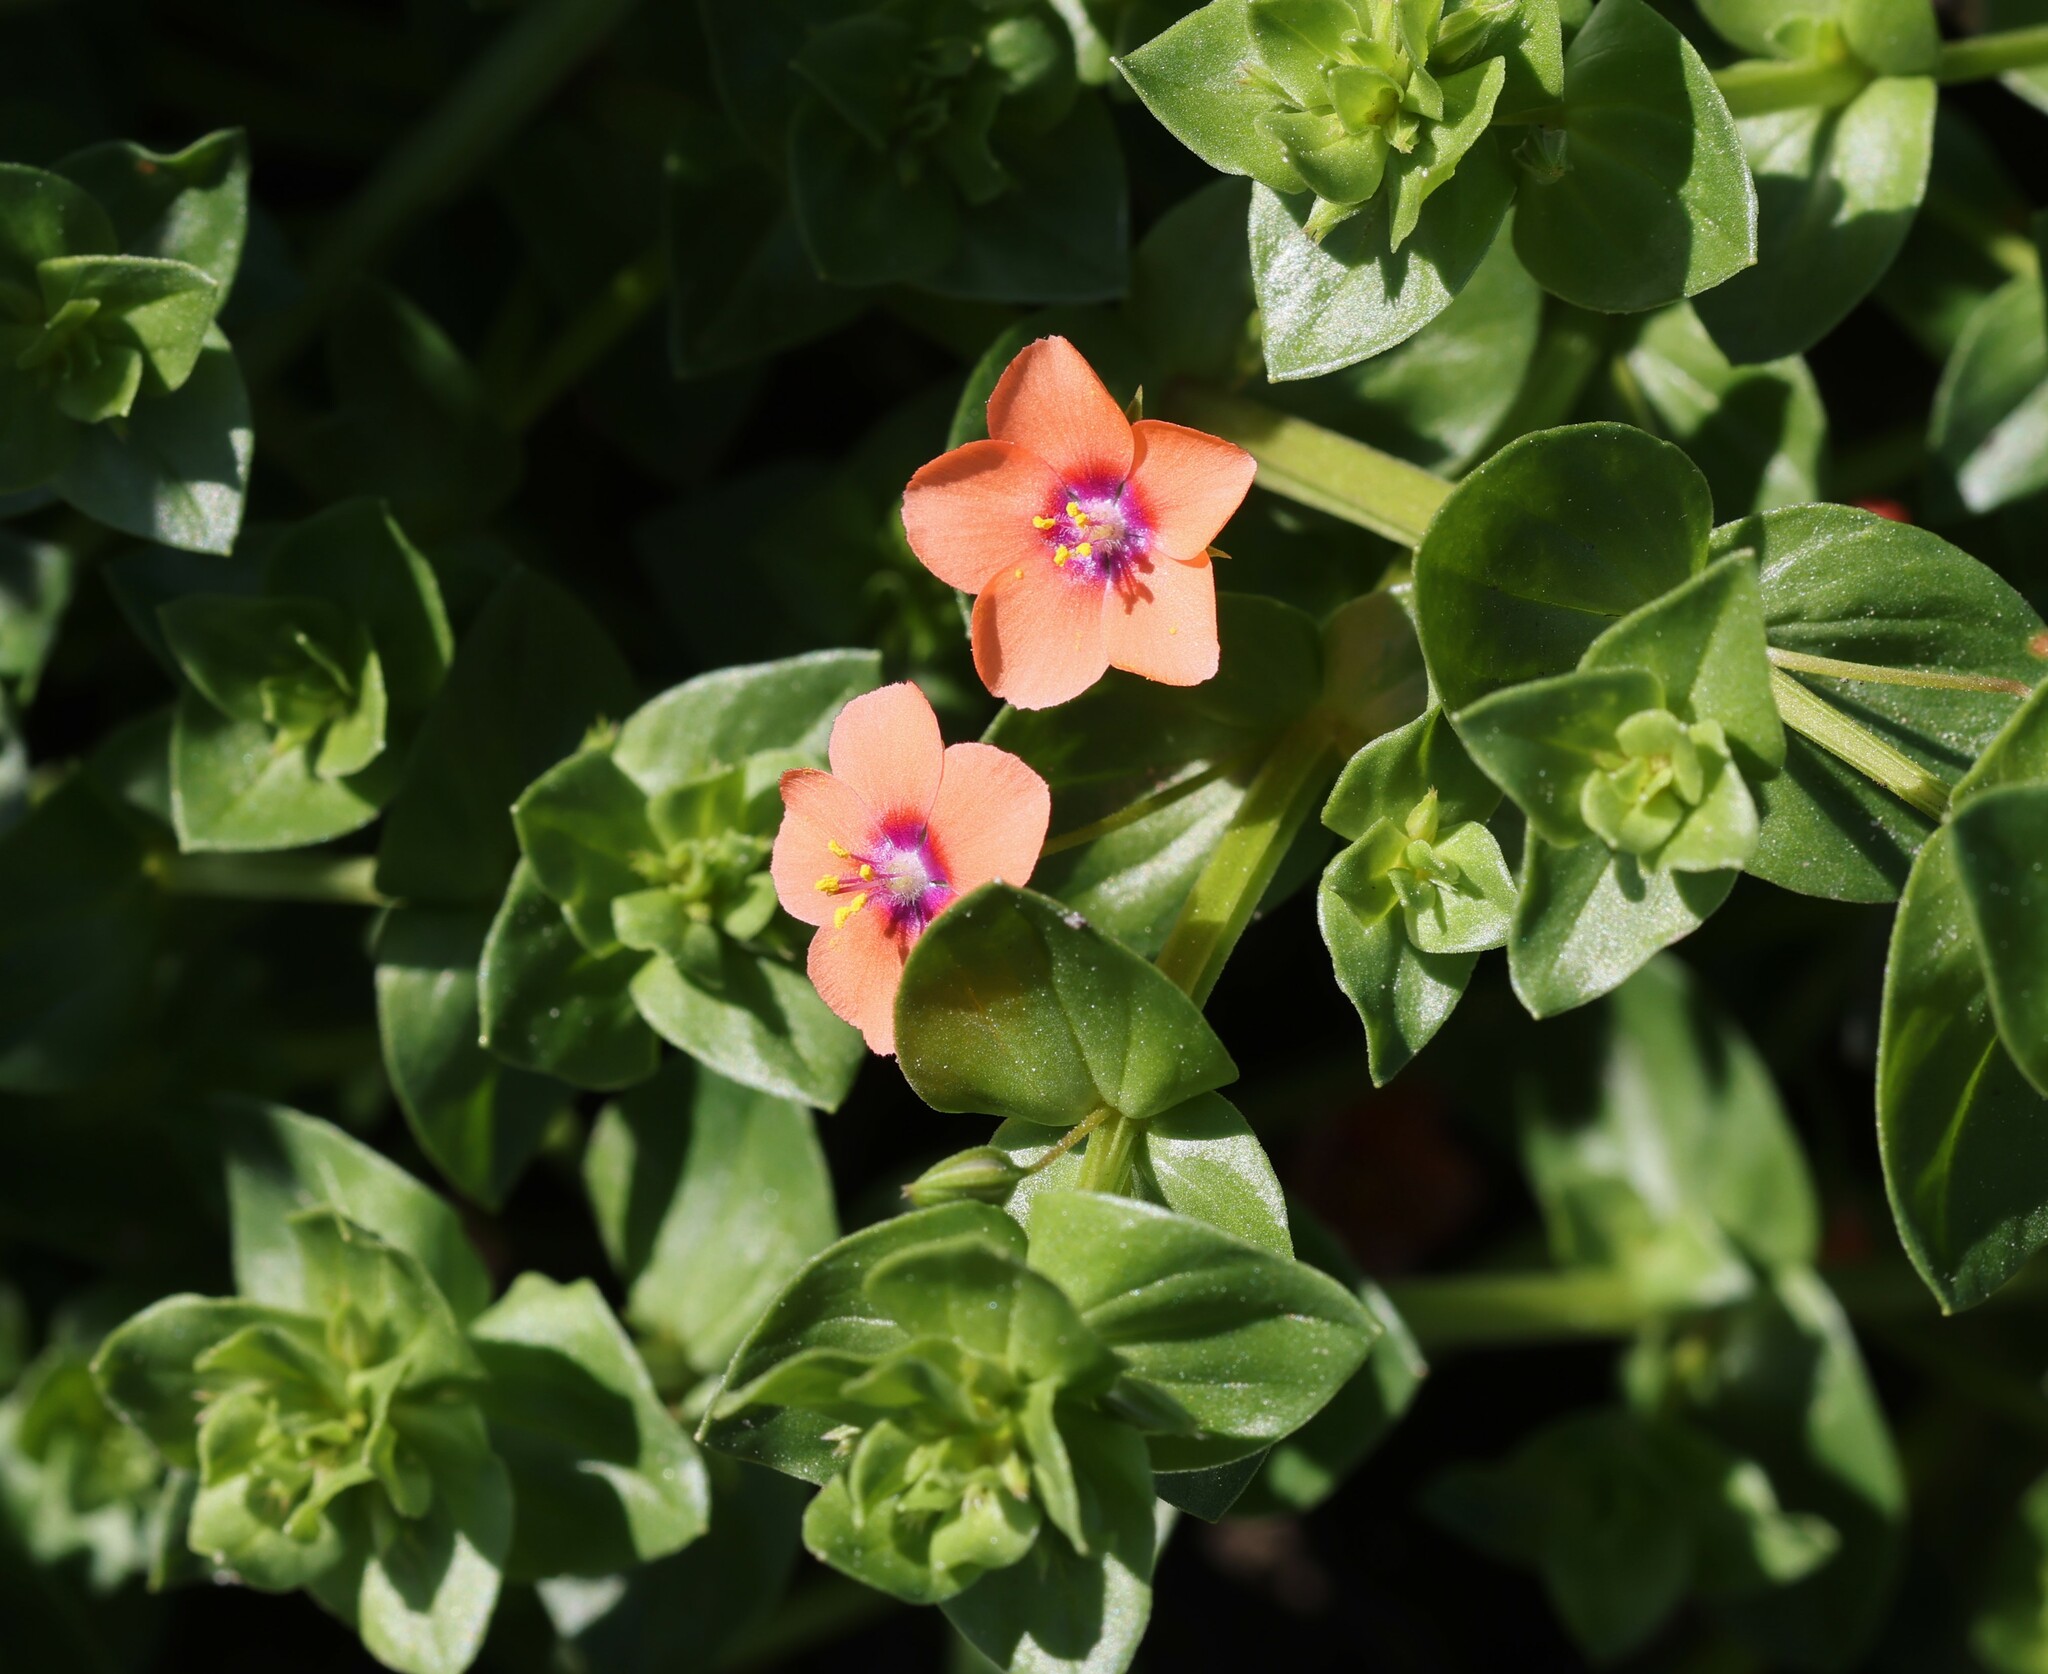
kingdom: Plantae
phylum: Tracheophyta
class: Magnoliopsida
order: Ericales
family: Primulaceae
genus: Lysimachia
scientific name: Lysimachia arvensis
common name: Scarlet pimpernel
